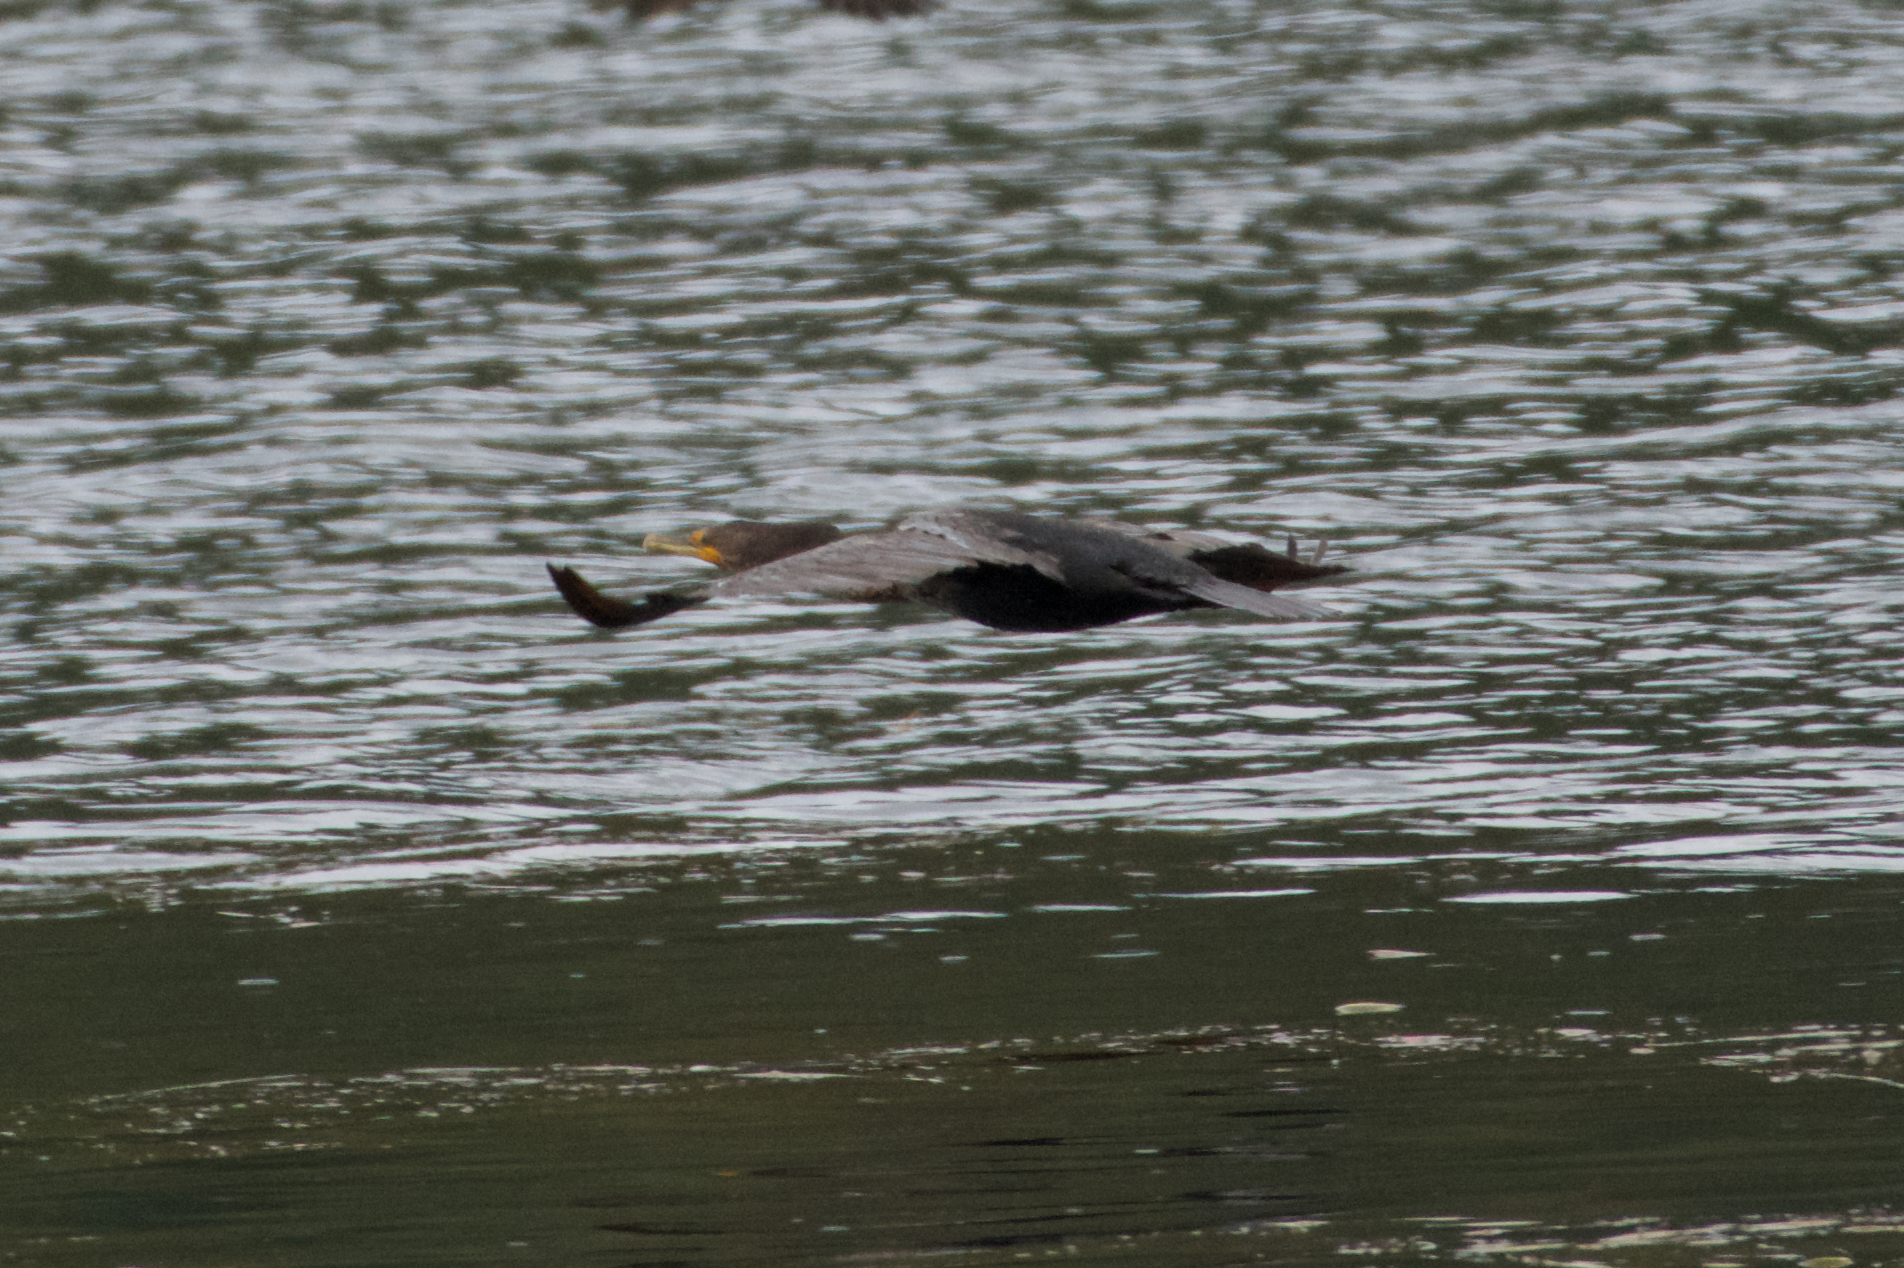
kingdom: Animalia
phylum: Chordata
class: Aves
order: Suliformes
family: Phalacrocoracidae
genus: Phalacrocorax
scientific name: Phalacrocorax auritus
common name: Double-crested cormorant
